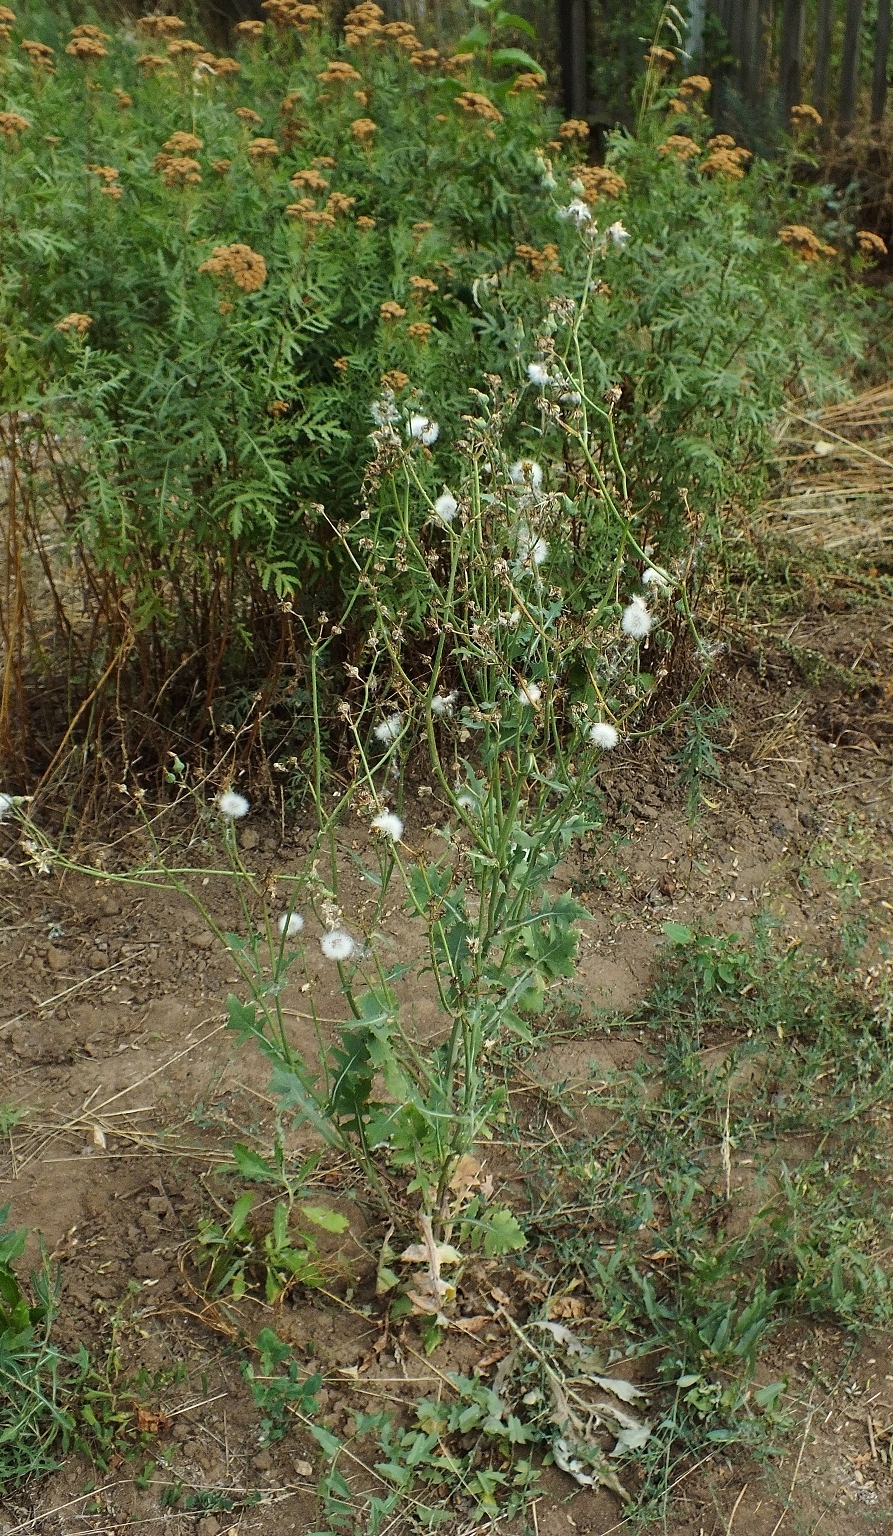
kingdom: Plantae
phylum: Tracheophyta
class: Magnoliopsida
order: Asterales
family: Asteraceae
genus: Sonchus
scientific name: Sonchus oleraceus
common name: Common sowthistle
